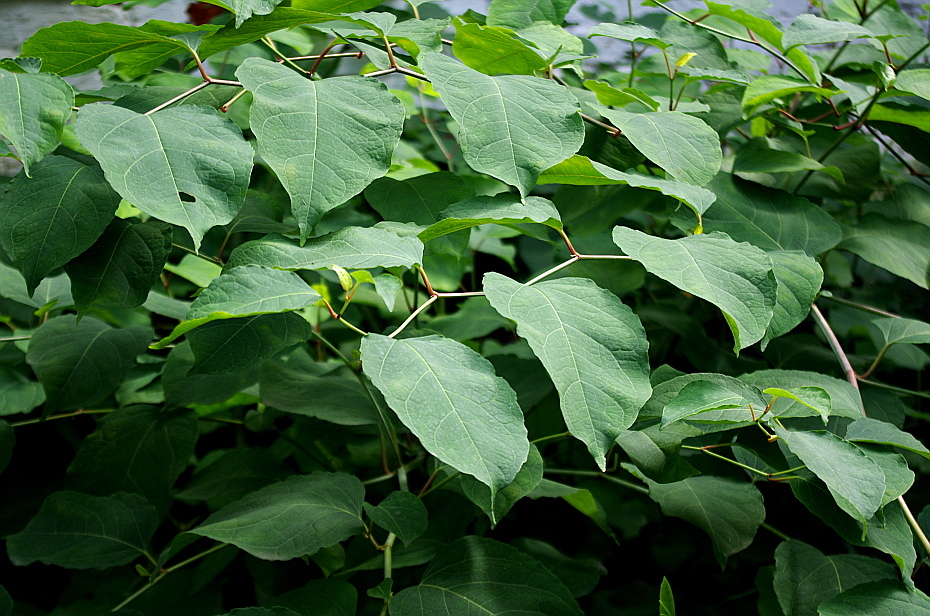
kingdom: Plantae
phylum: Tracheophyta
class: Magnoliopsida
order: Caryophyllales
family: Polygonaceae
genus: Reynoutria
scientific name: Reynoutria bohemica
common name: Bohemian knotweed
